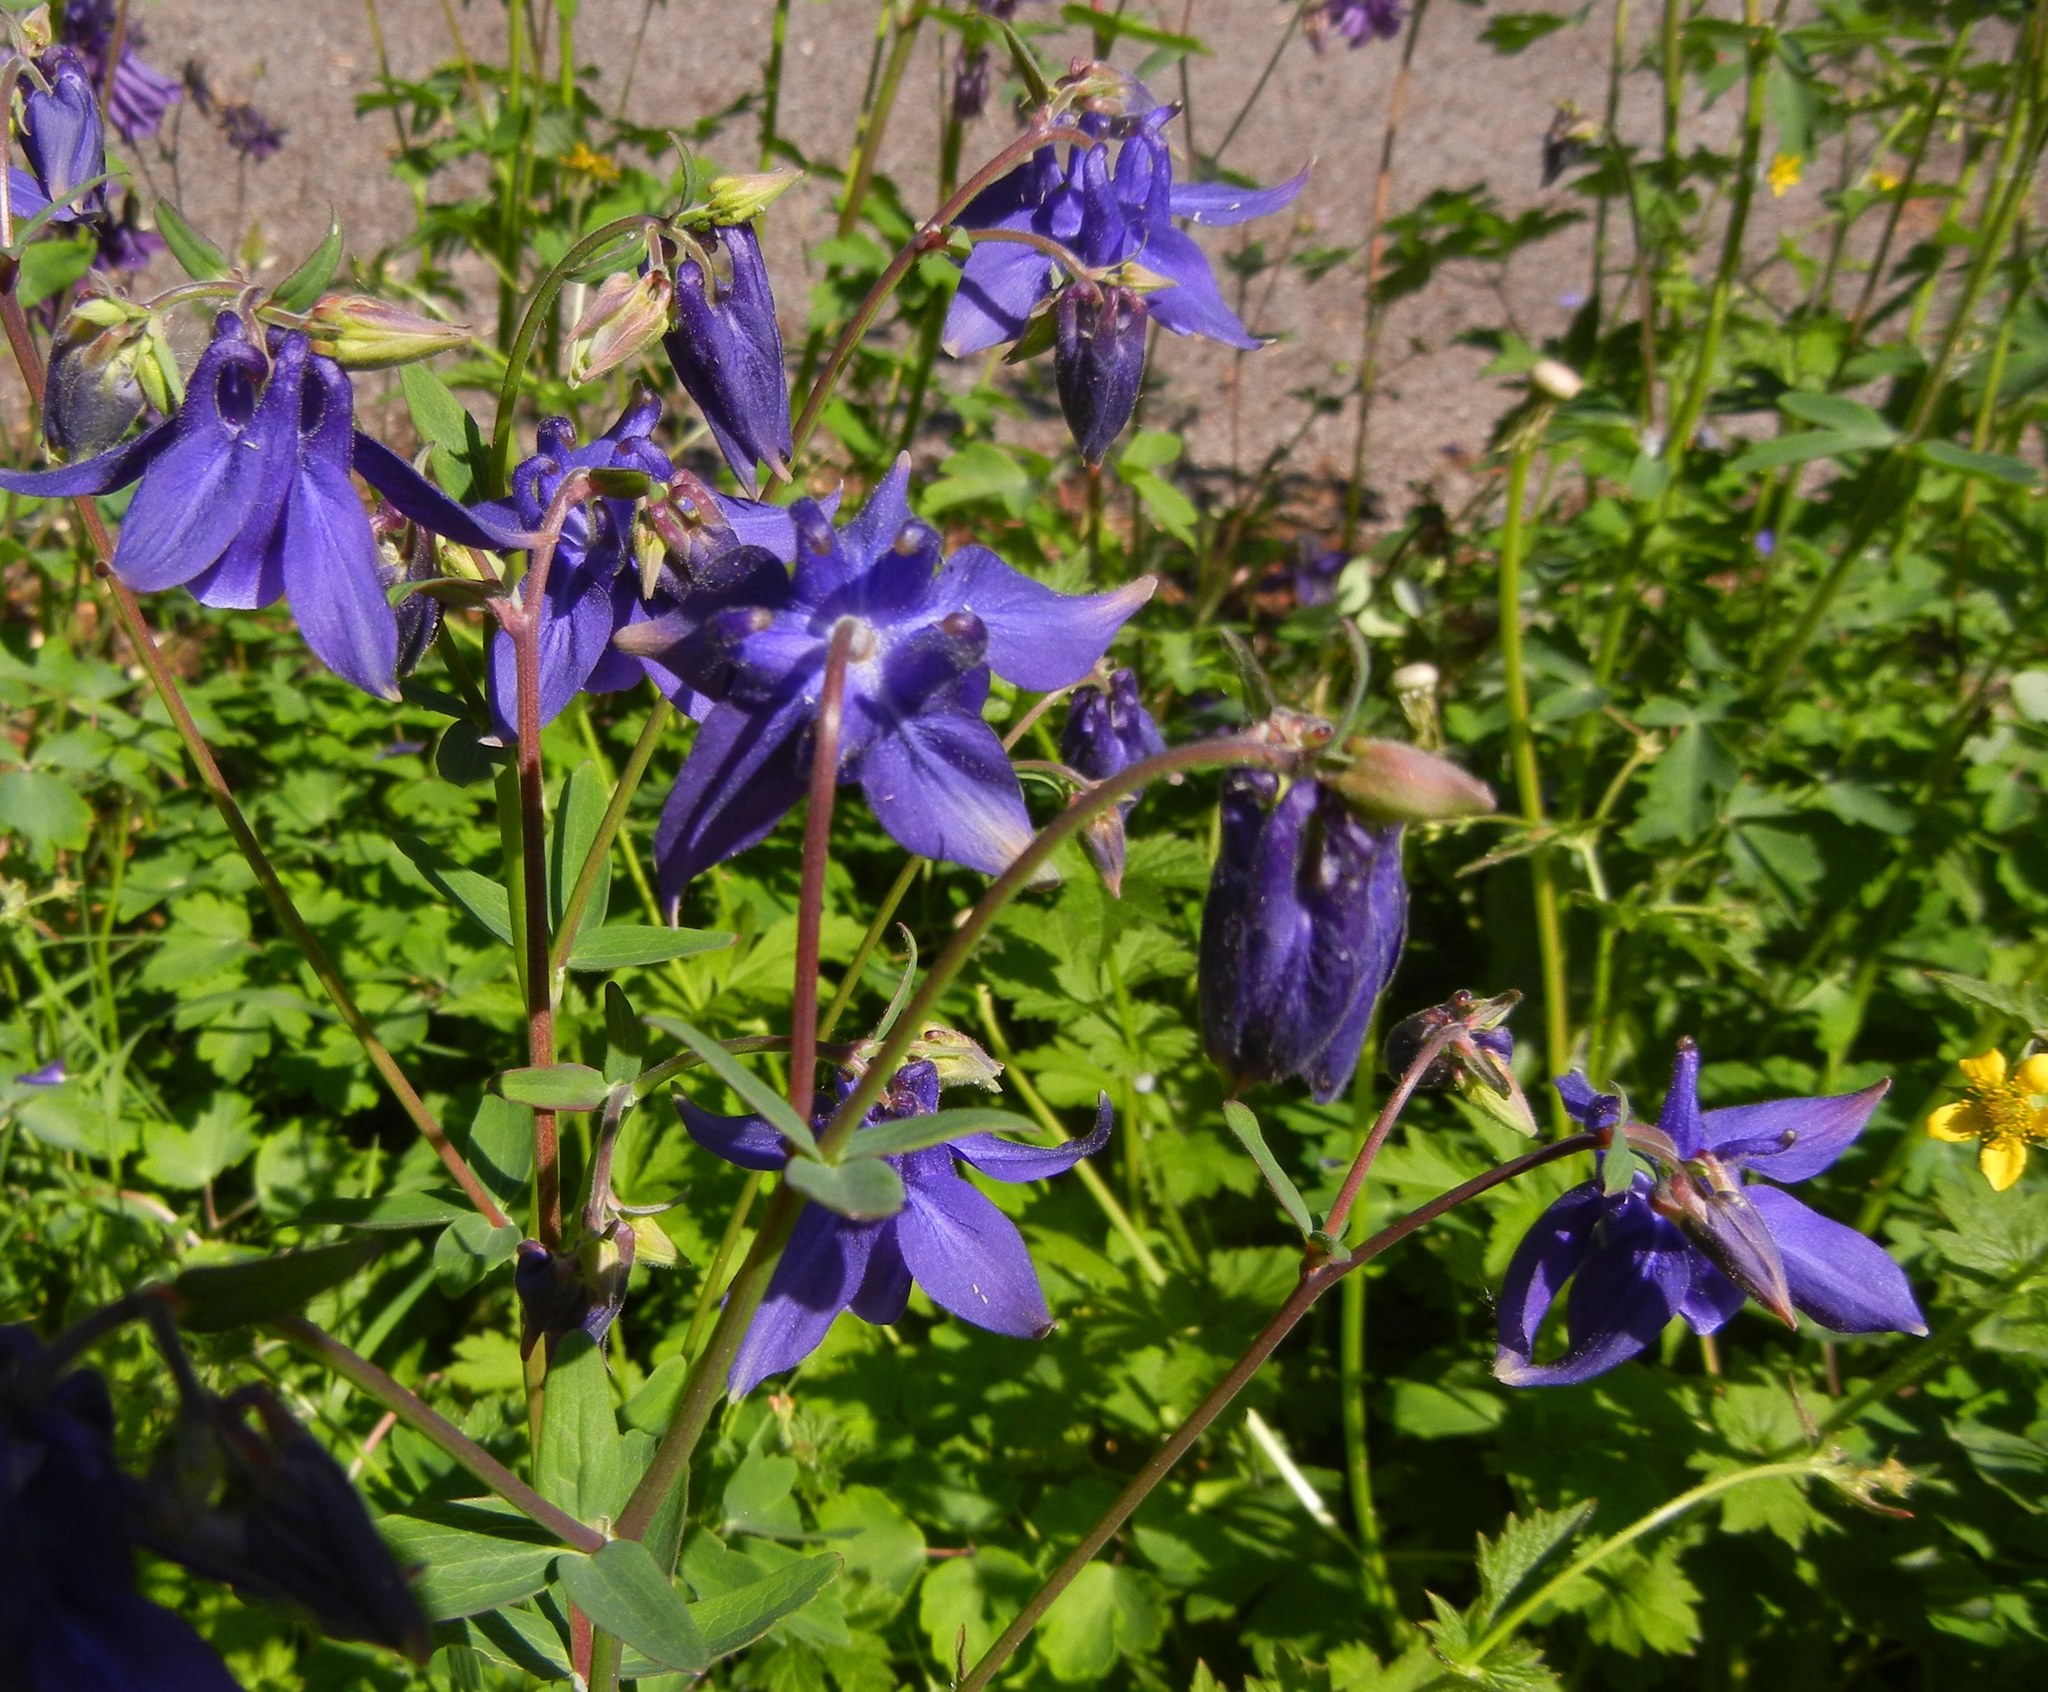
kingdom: Plantae
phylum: Tracheophyta
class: Magnoliopsida
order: Ranunculales
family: Ranunculaceae
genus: Aquilegia
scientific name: Aquilegia vulgaris
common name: Columbine
